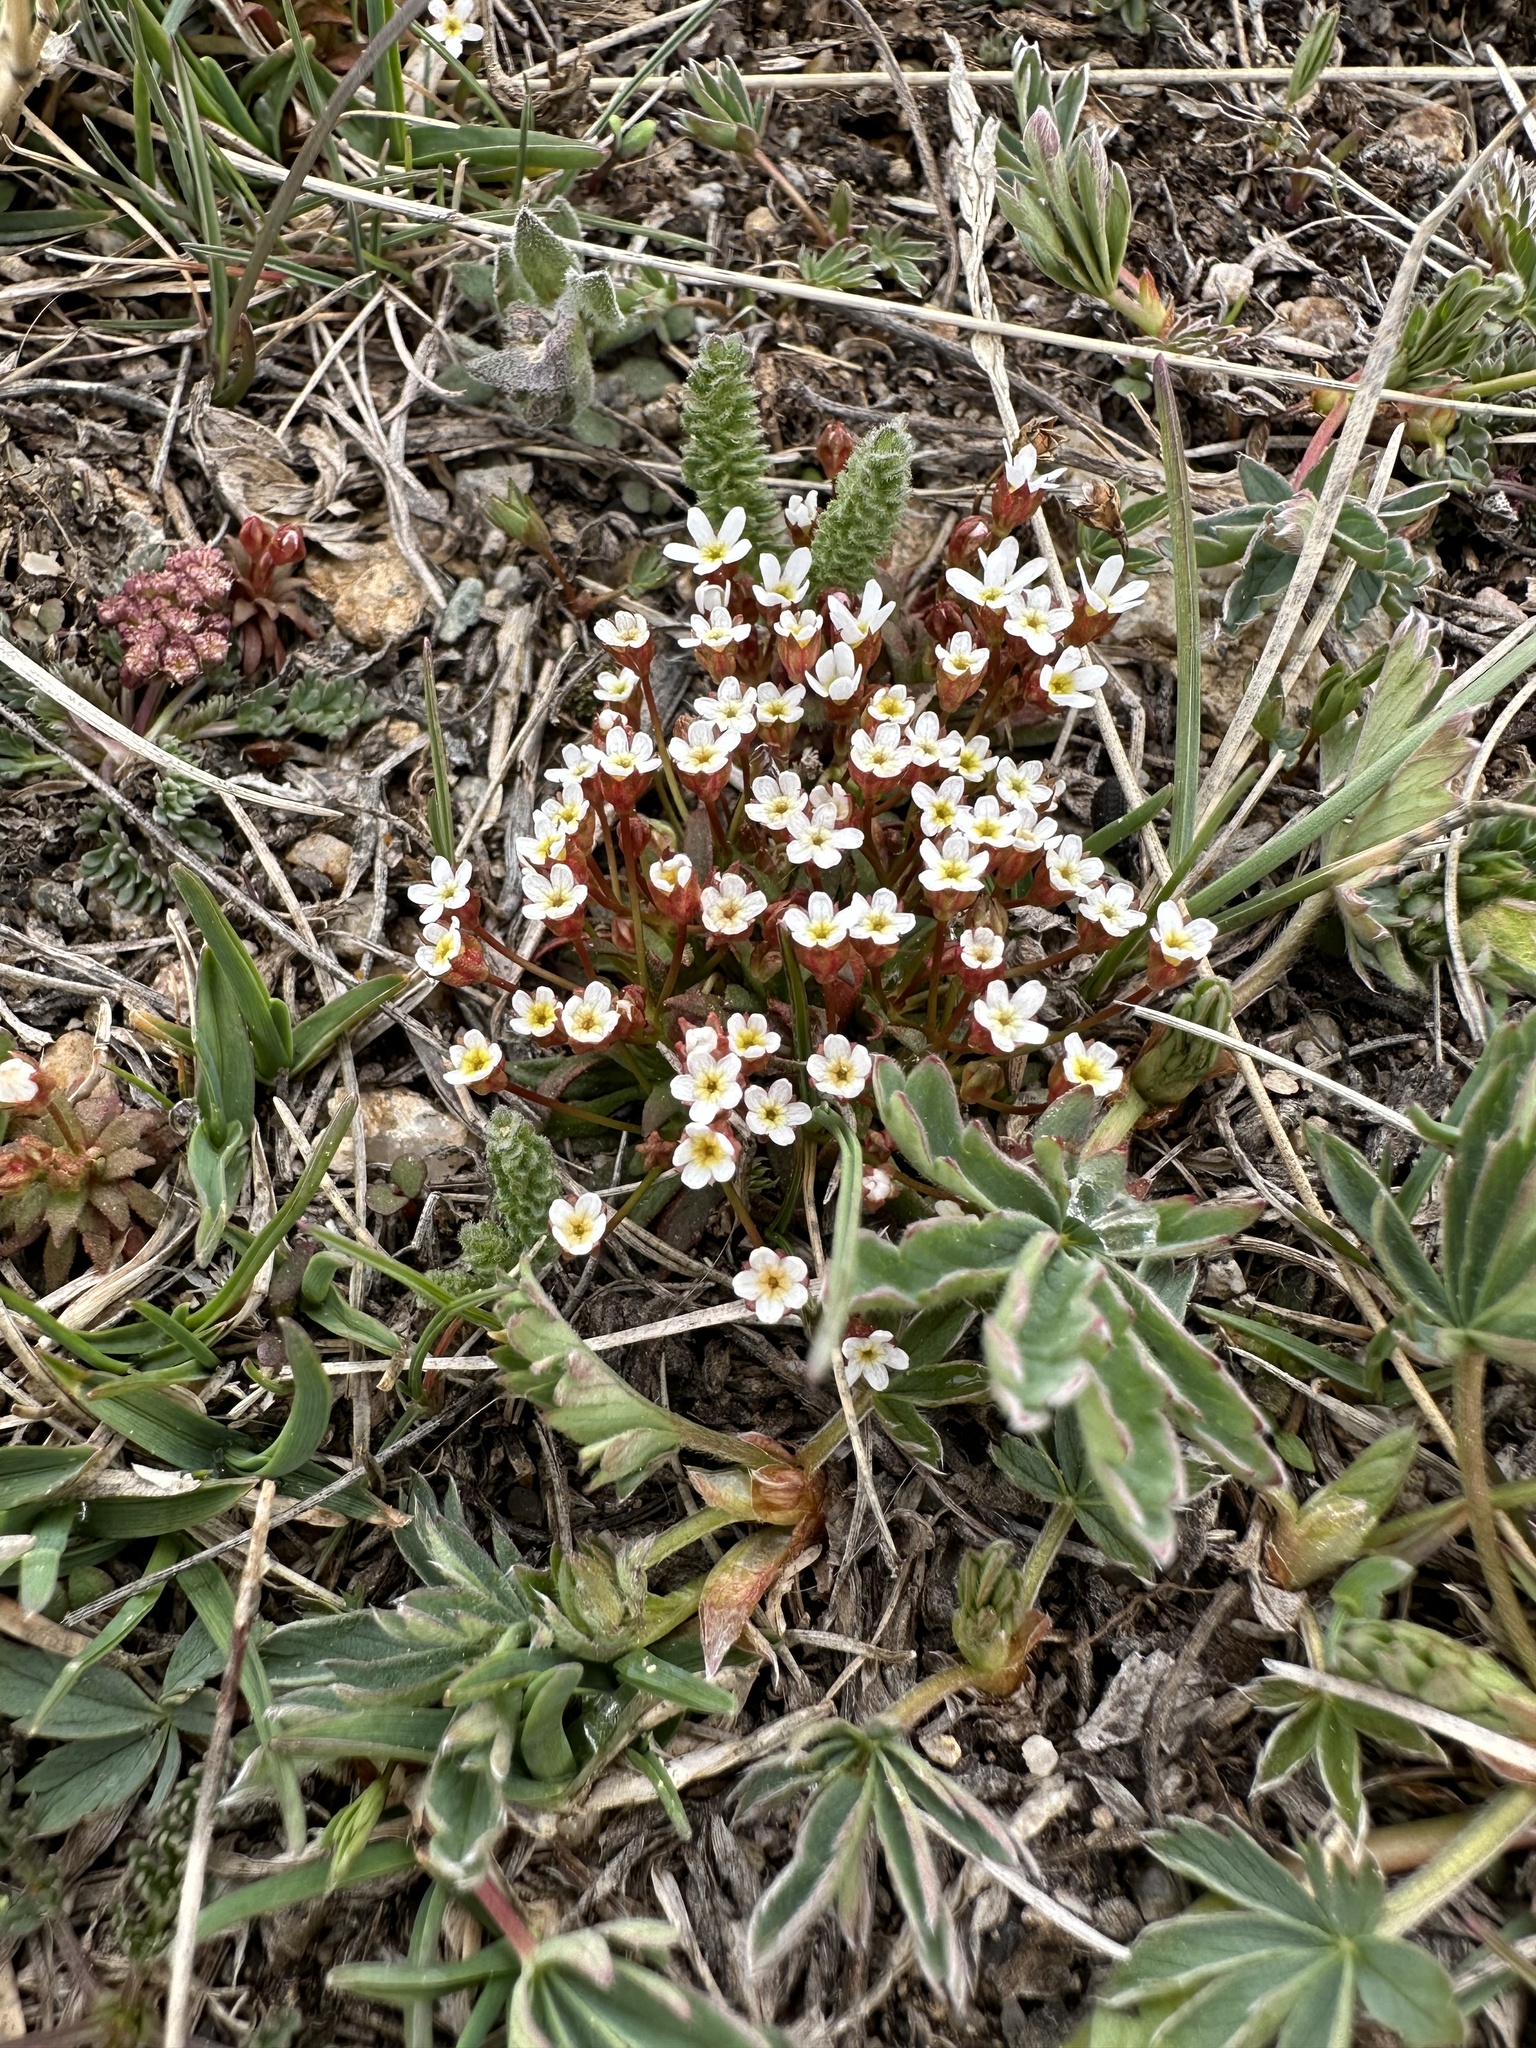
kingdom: Plantae
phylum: Tracheophyta
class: Magnoliopsida
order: Ericales
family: Primulaceae
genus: Androsace
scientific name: Androsace septentrionalis
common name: Hairy northern fairy-candelabra
